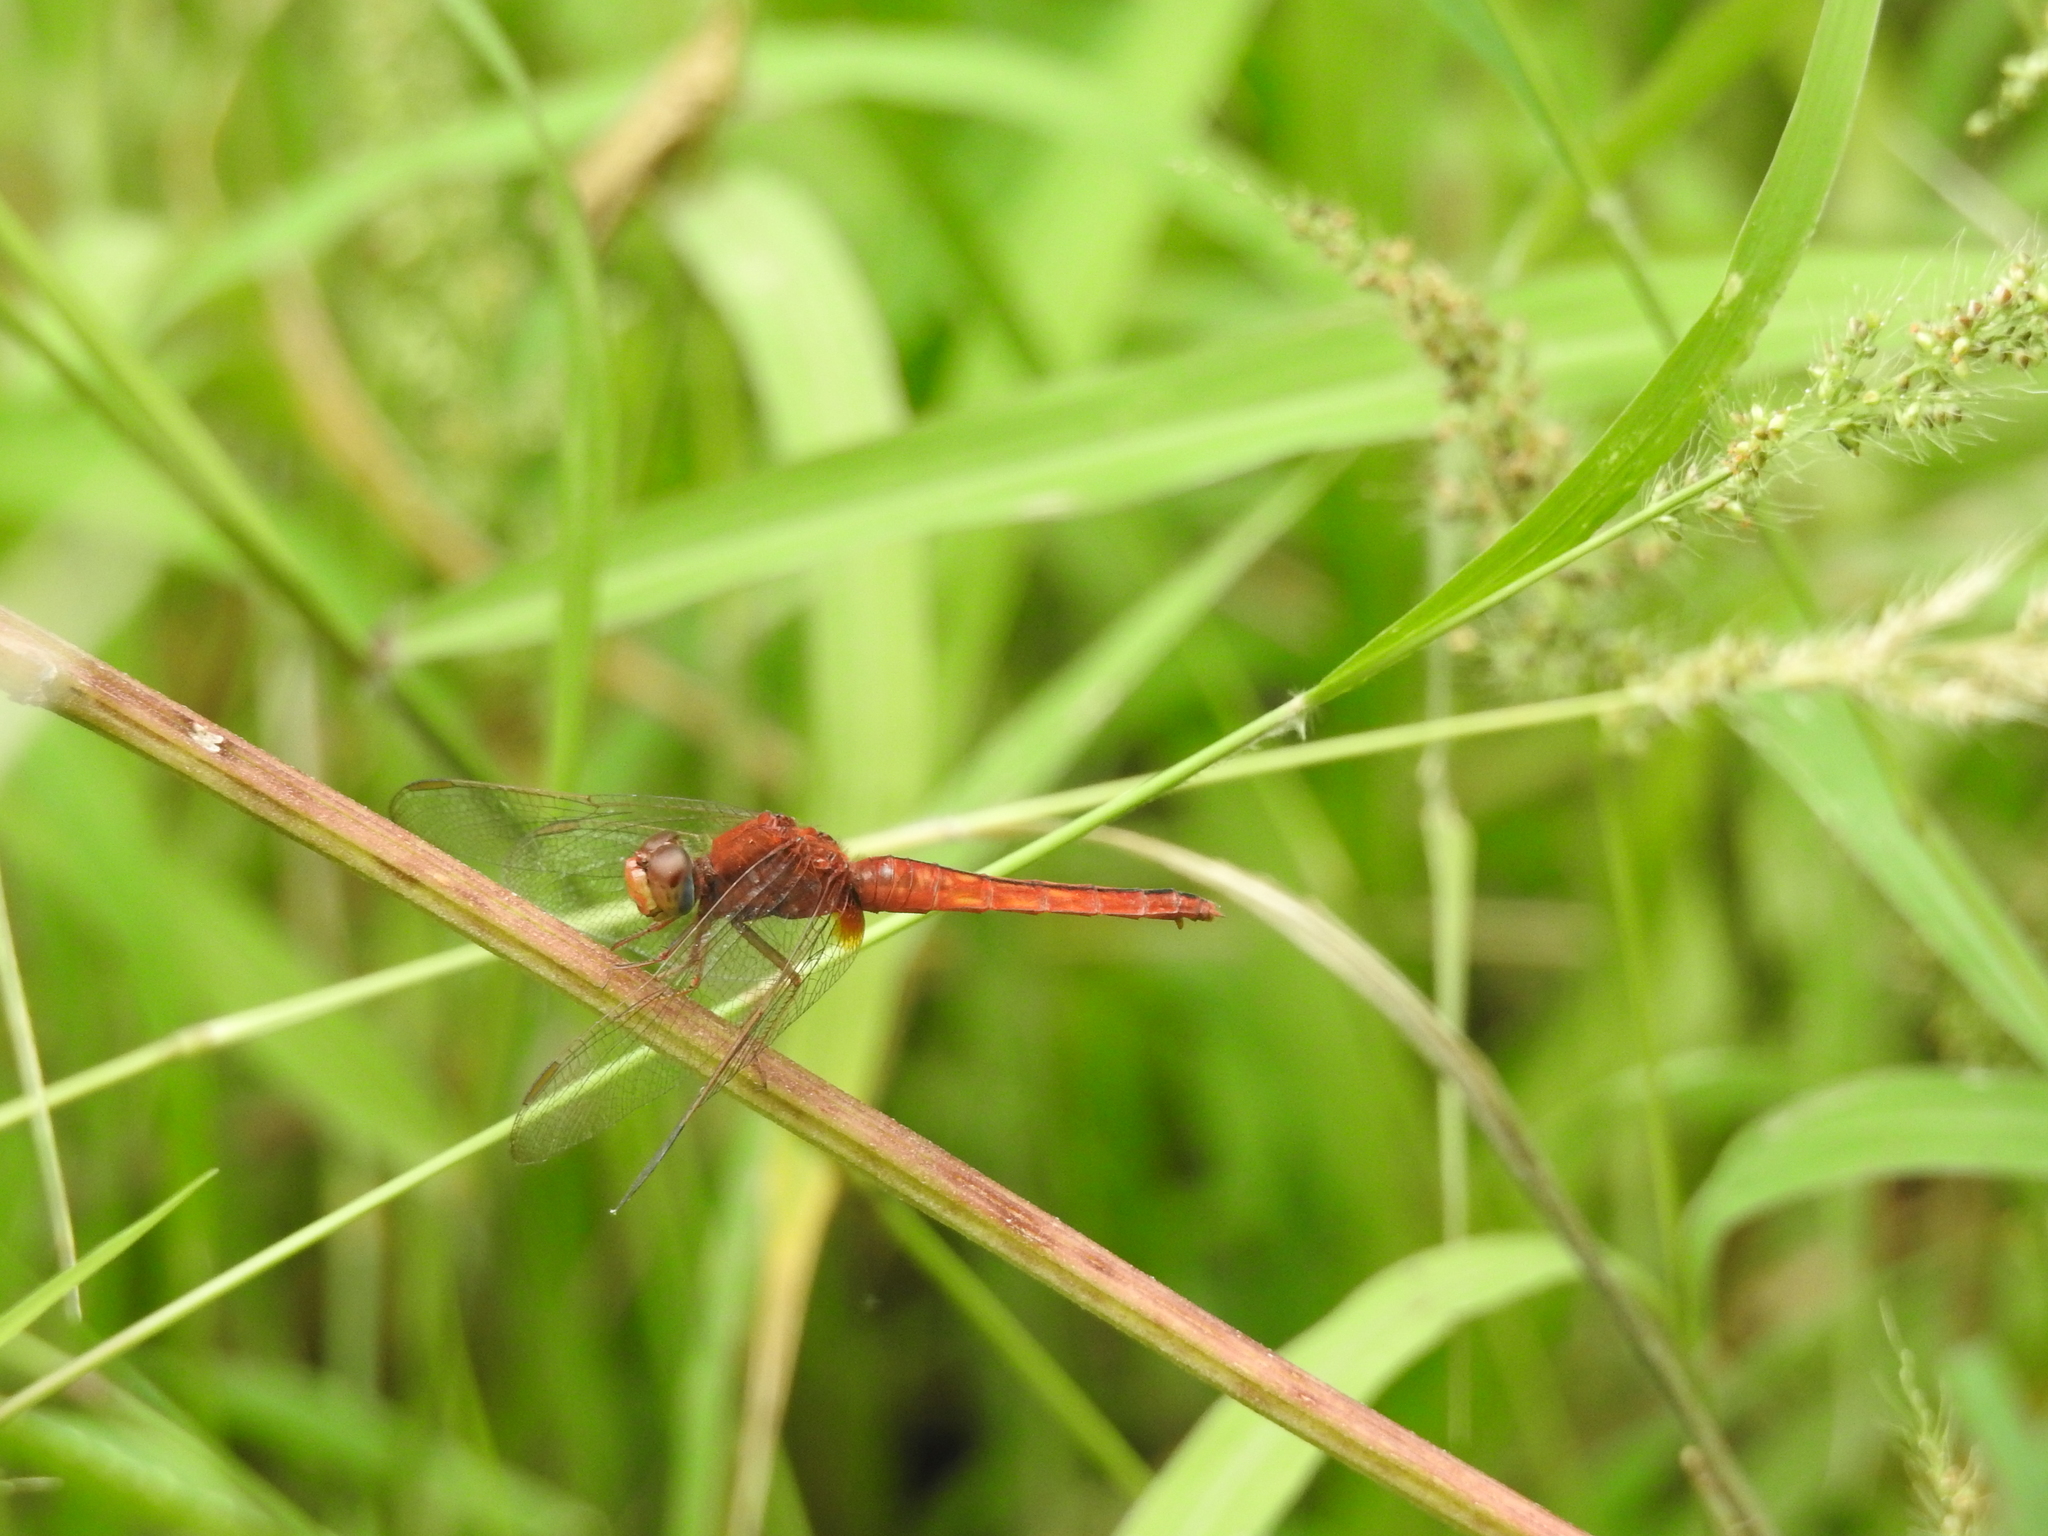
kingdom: Animalia
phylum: Arthropoda
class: Insecta
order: Odonata
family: Libellulidae
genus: Crocothemis
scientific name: Crocothemis servilia
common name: Scarlet skimmer
